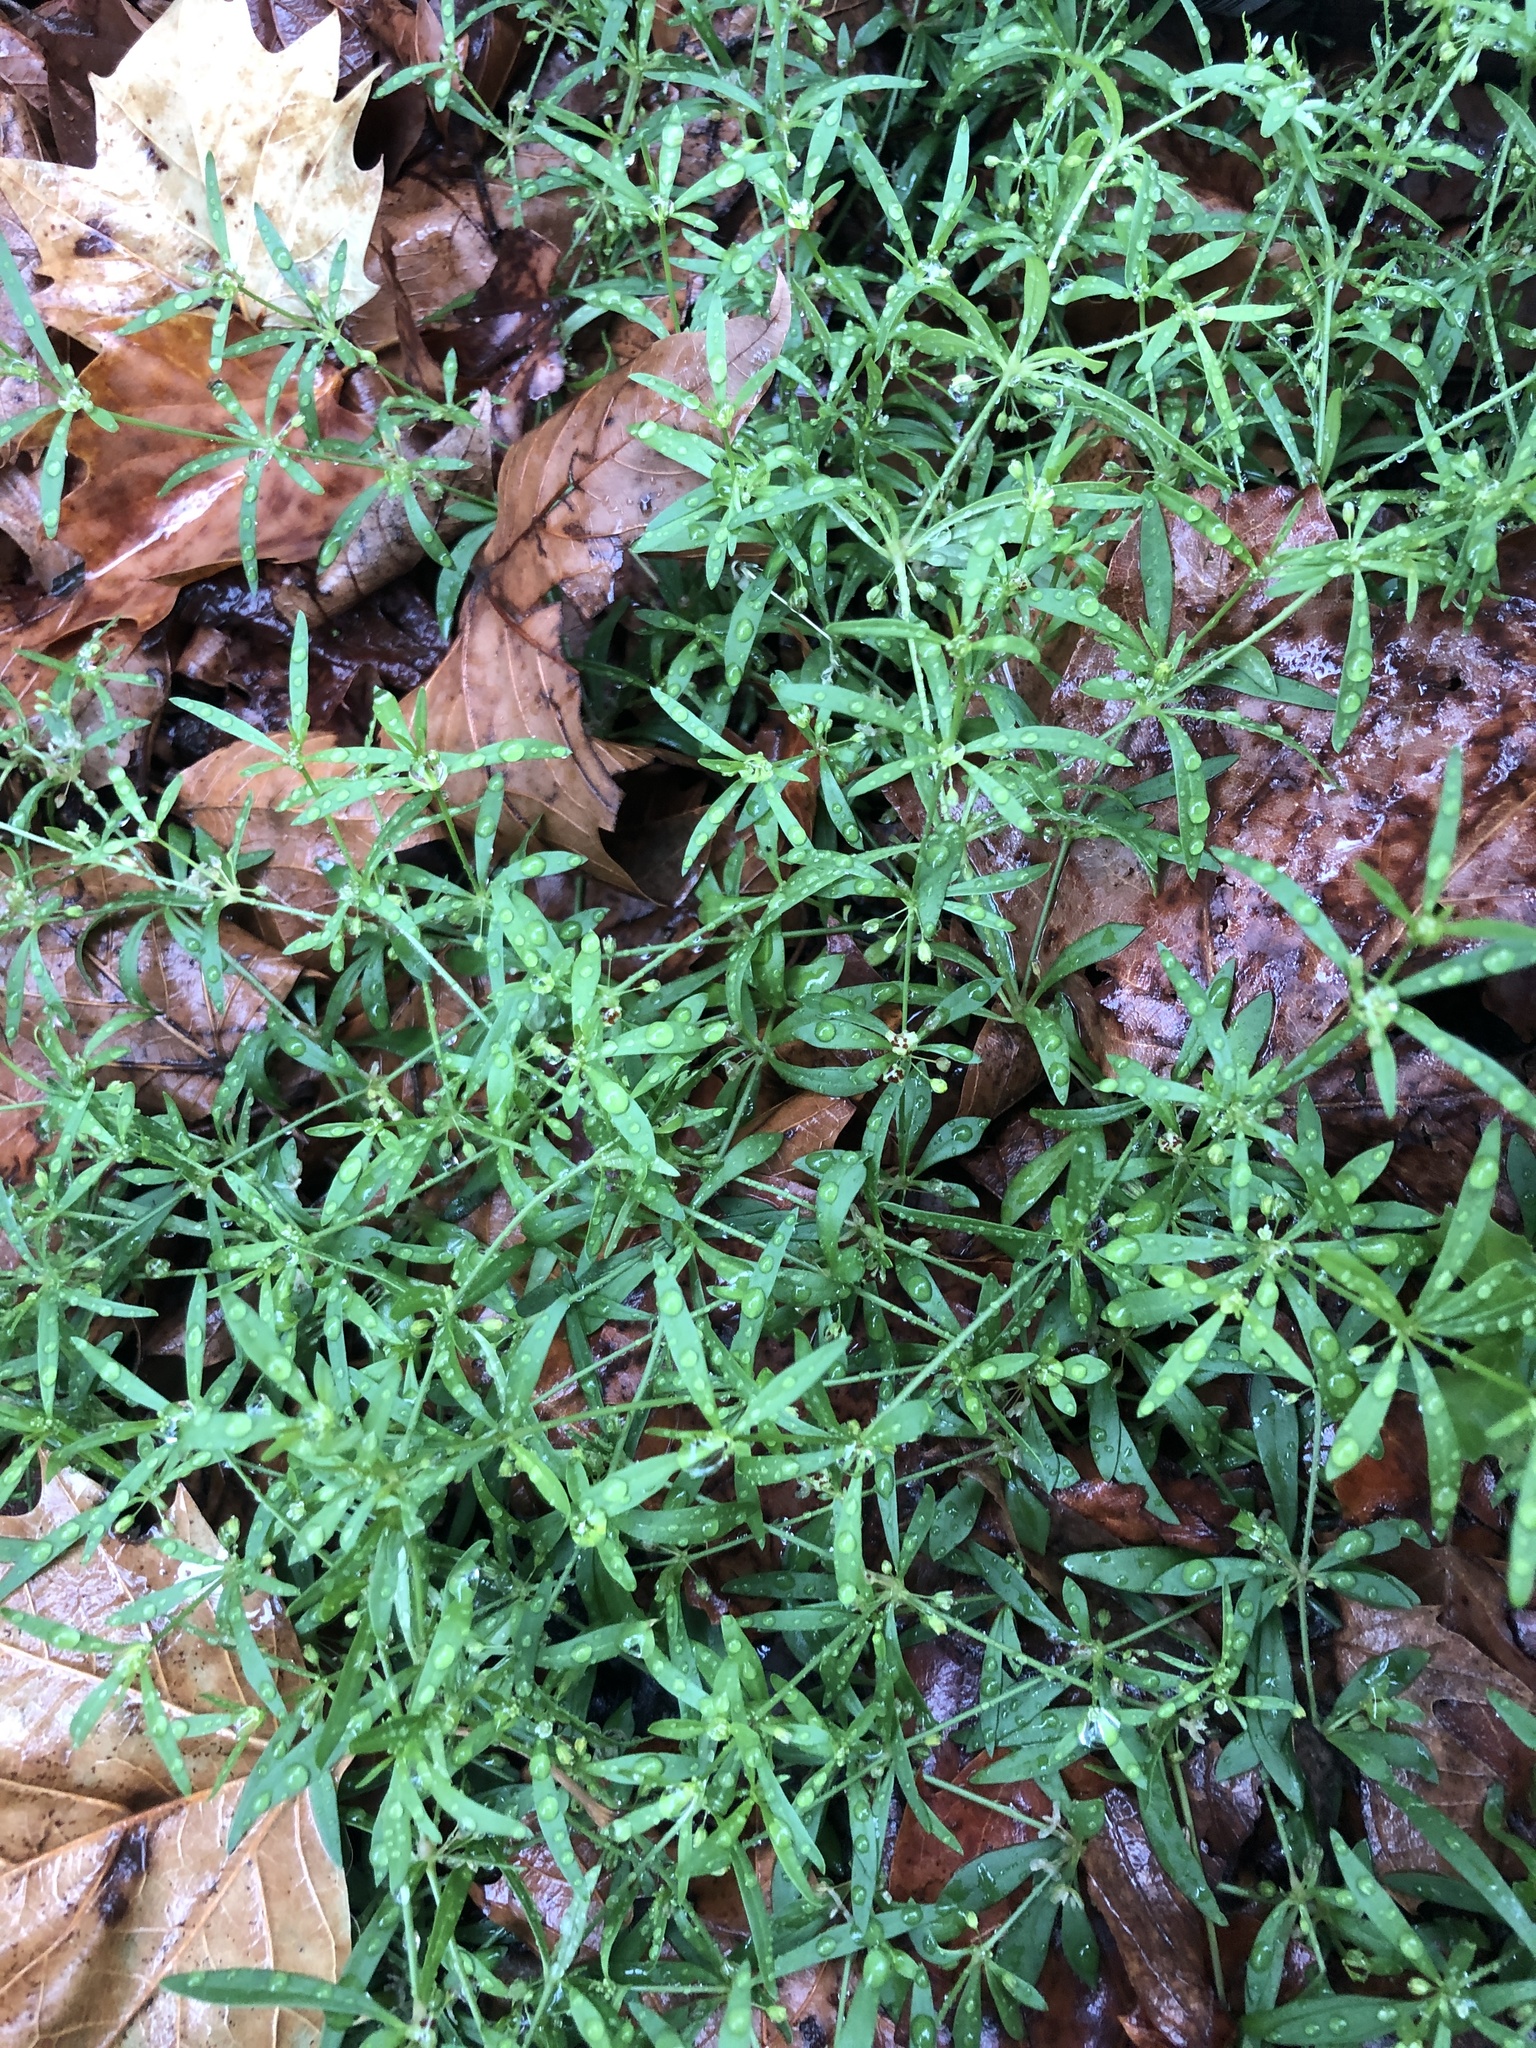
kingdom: Plantae
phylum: Tracheophyta
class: Magnoliopsida
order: Caryophyllales
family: Molluginaceae
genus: Mollugo
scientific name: Mollugo verticillata
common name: Green carpetweed
